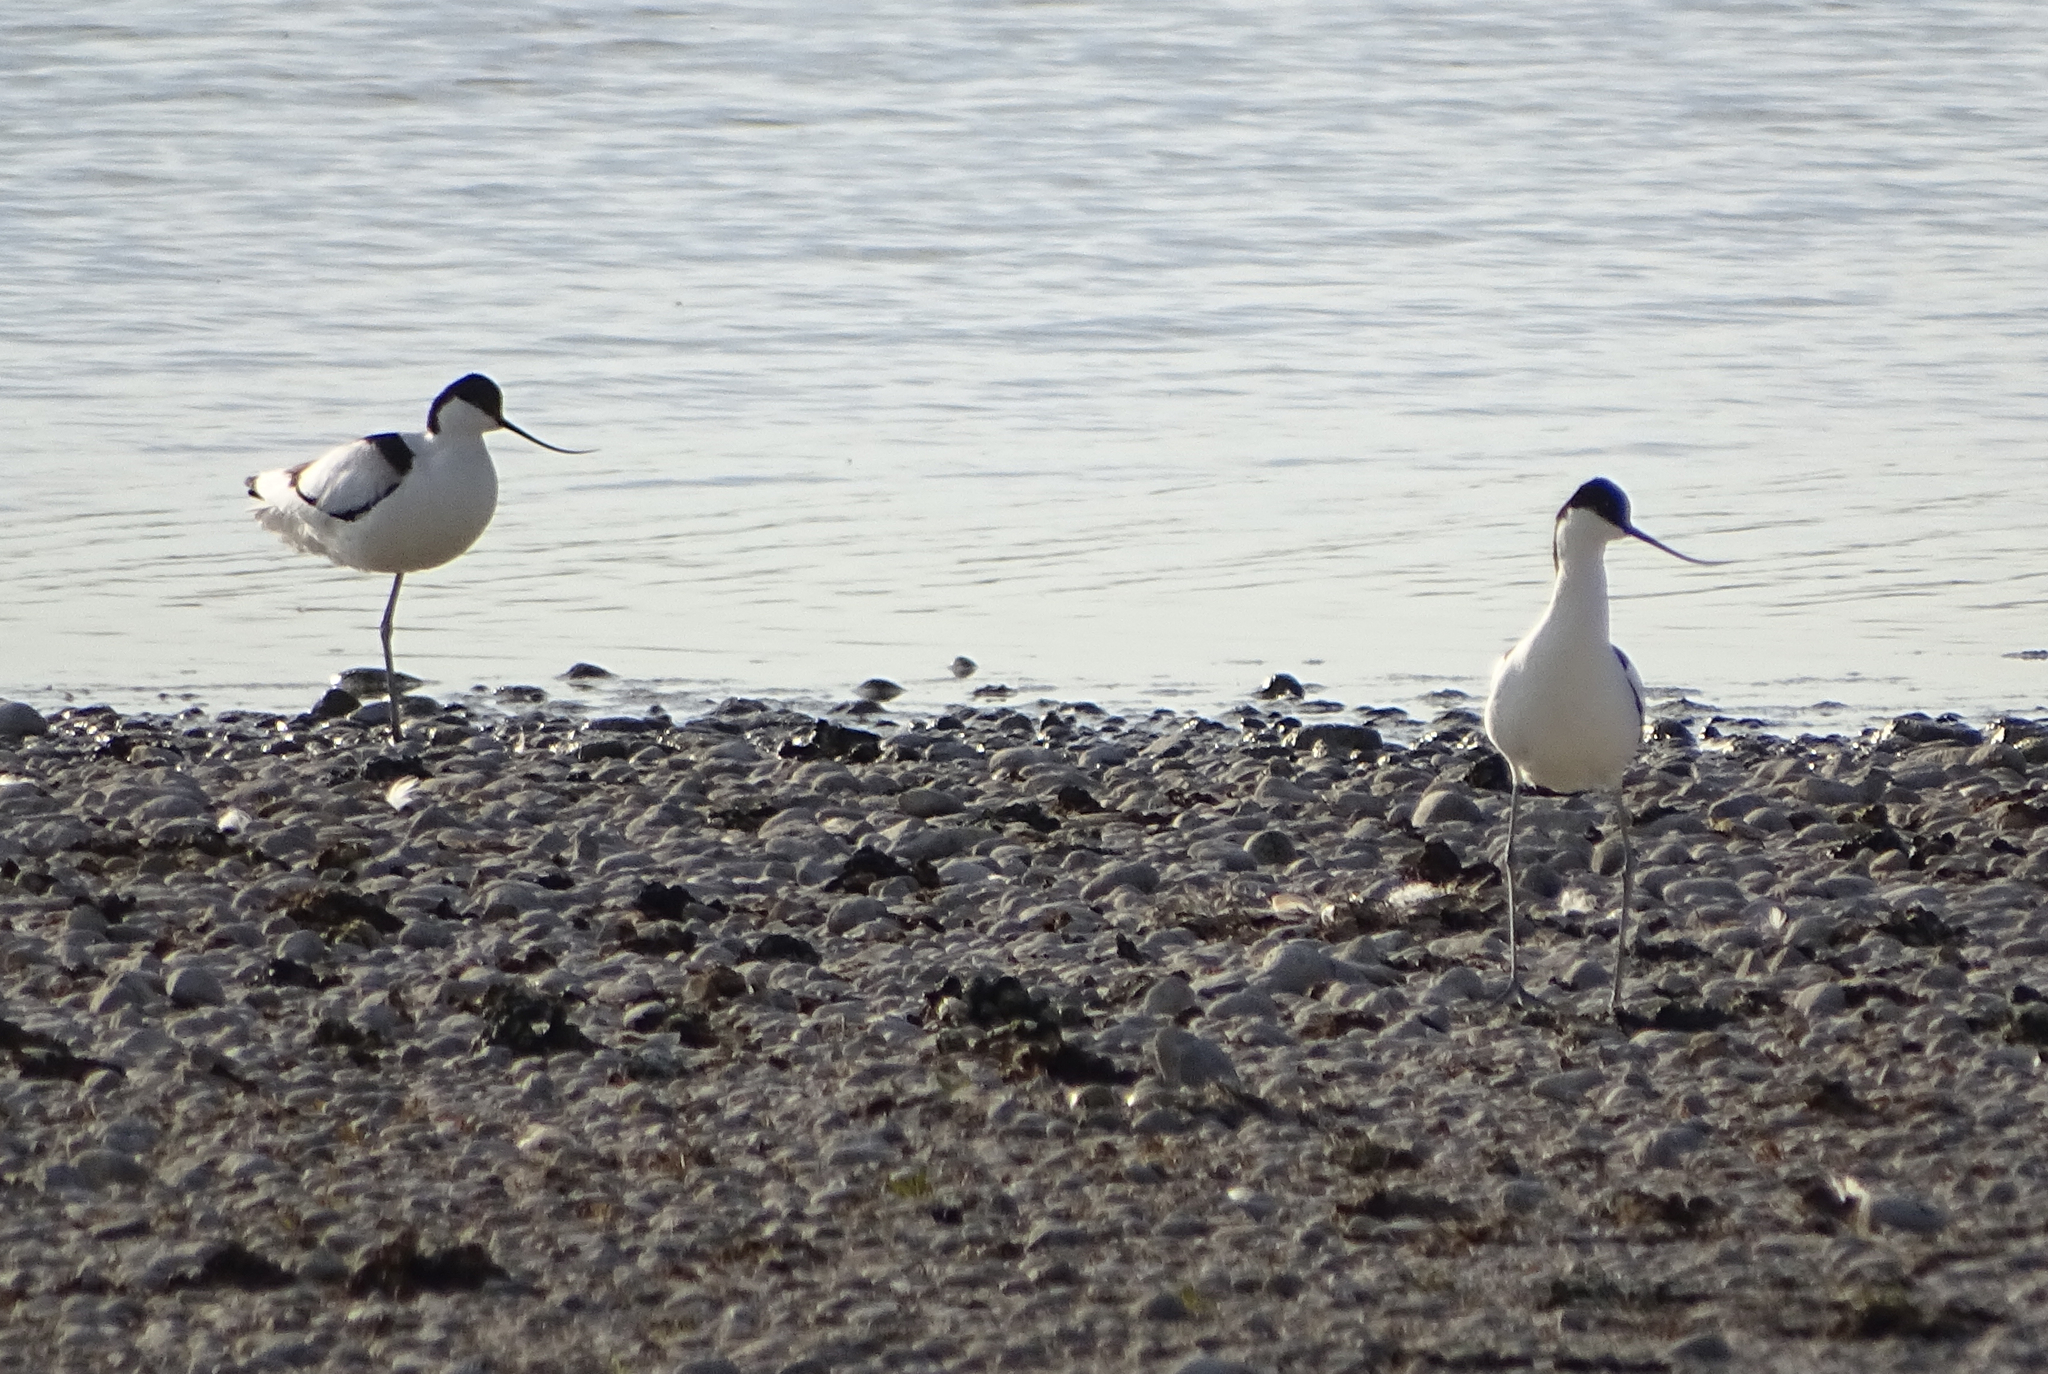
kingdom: Animalia
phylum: Chordata
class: Aves
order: Charadriiformes
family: Recurvirostridae
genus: Recurvirostra
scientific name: Recurvirostra avosetta
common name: Pied avocet
